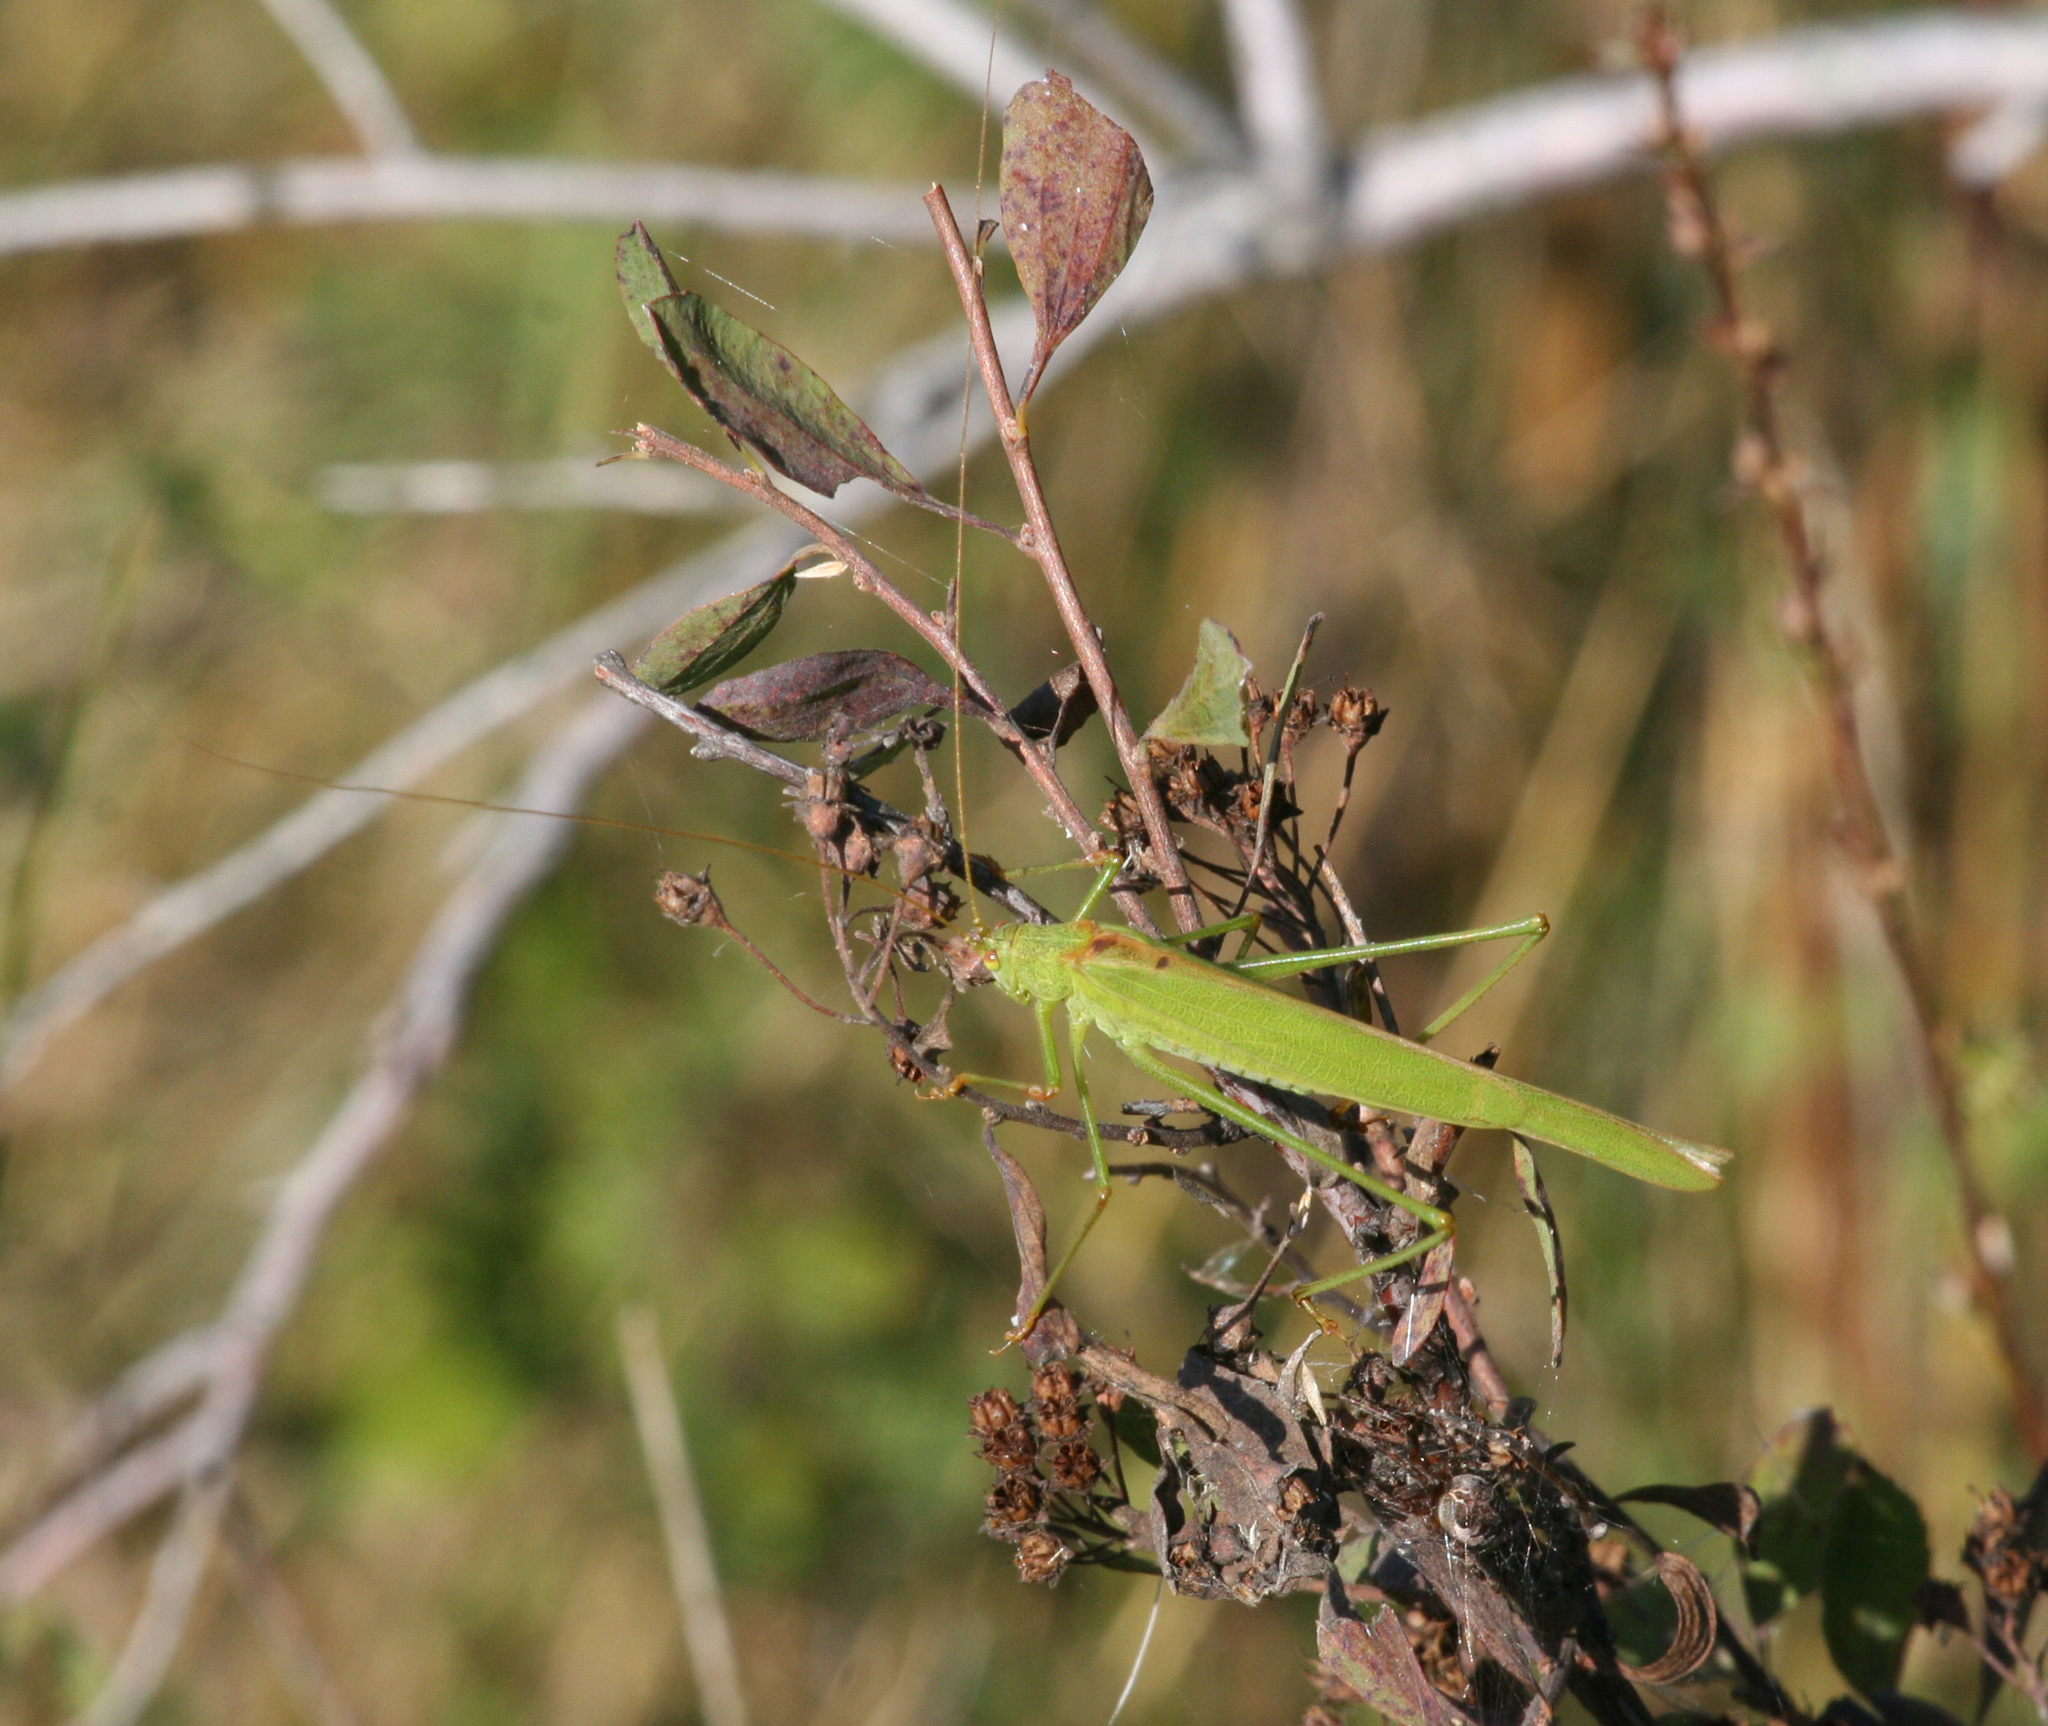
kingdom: Animalia
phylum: Arthropoda
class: Insecta
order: Orthoptera
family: Tettigoniidae
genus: Phaneroptera
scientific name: Phaneroptera falcata
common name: Sickle-bearing bush-cricket
